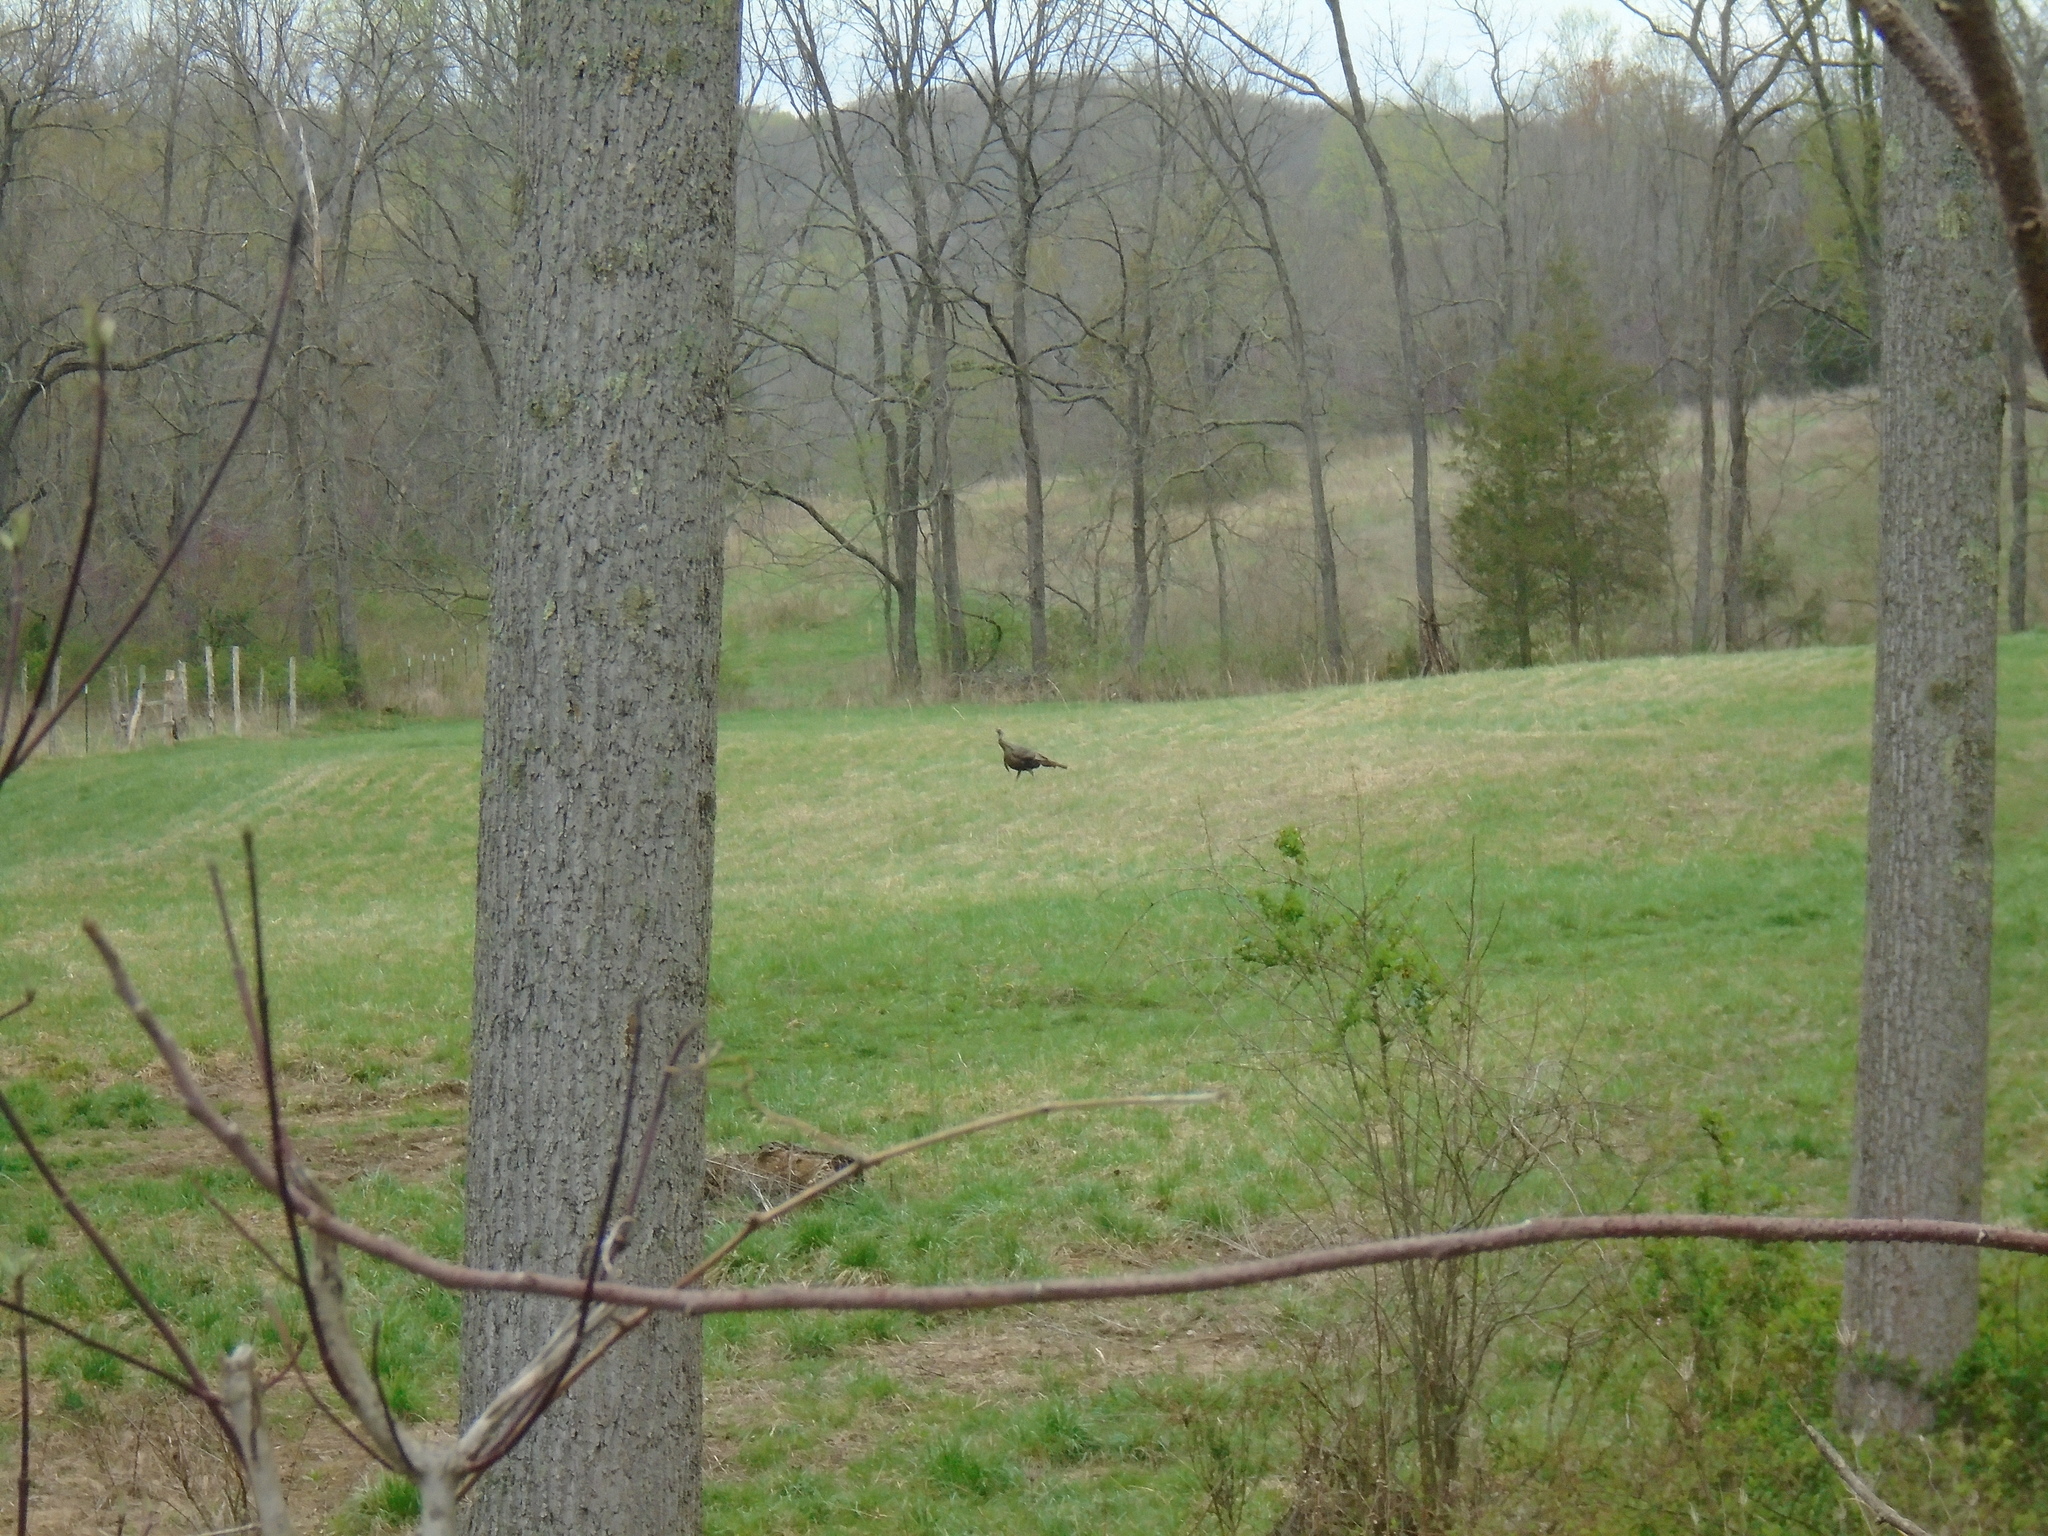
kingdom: Animalia
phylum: Chordata
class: Aves
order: Galliformes
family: Phasianidae
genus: Meleagris
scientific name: Meleagris gallopavo
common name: Wild turkey
